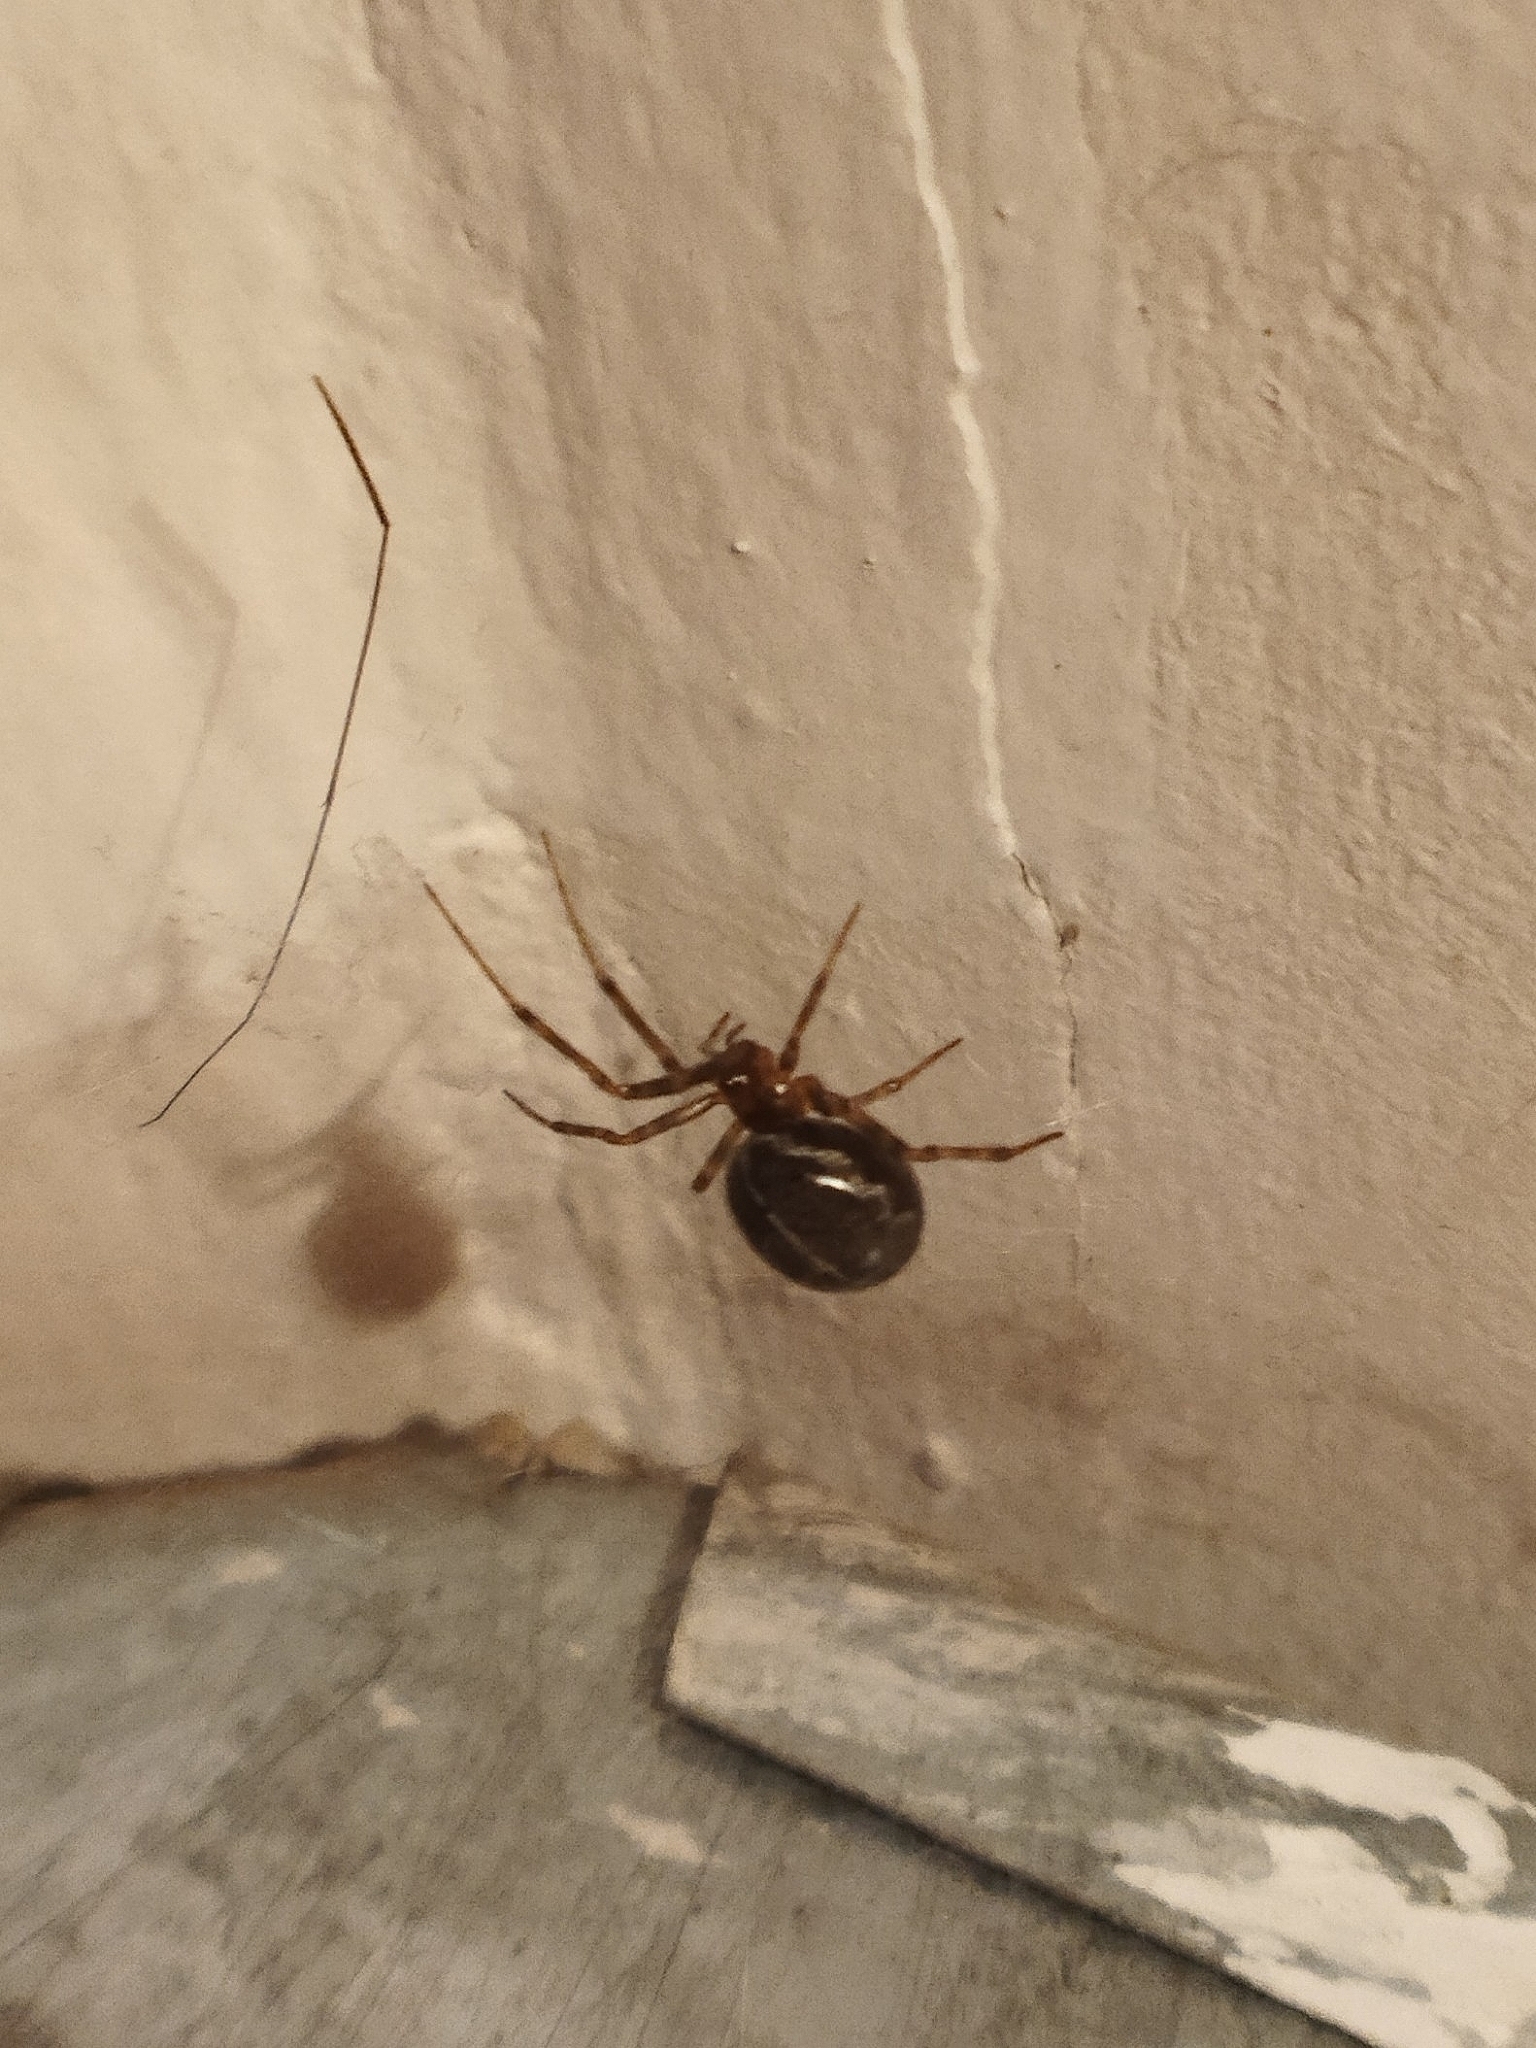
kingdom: Animalia
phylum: Arthropoda
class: Arachnida
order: Araneae
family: Theridiidae
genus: Steatoda
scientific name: Steatoda castanea
